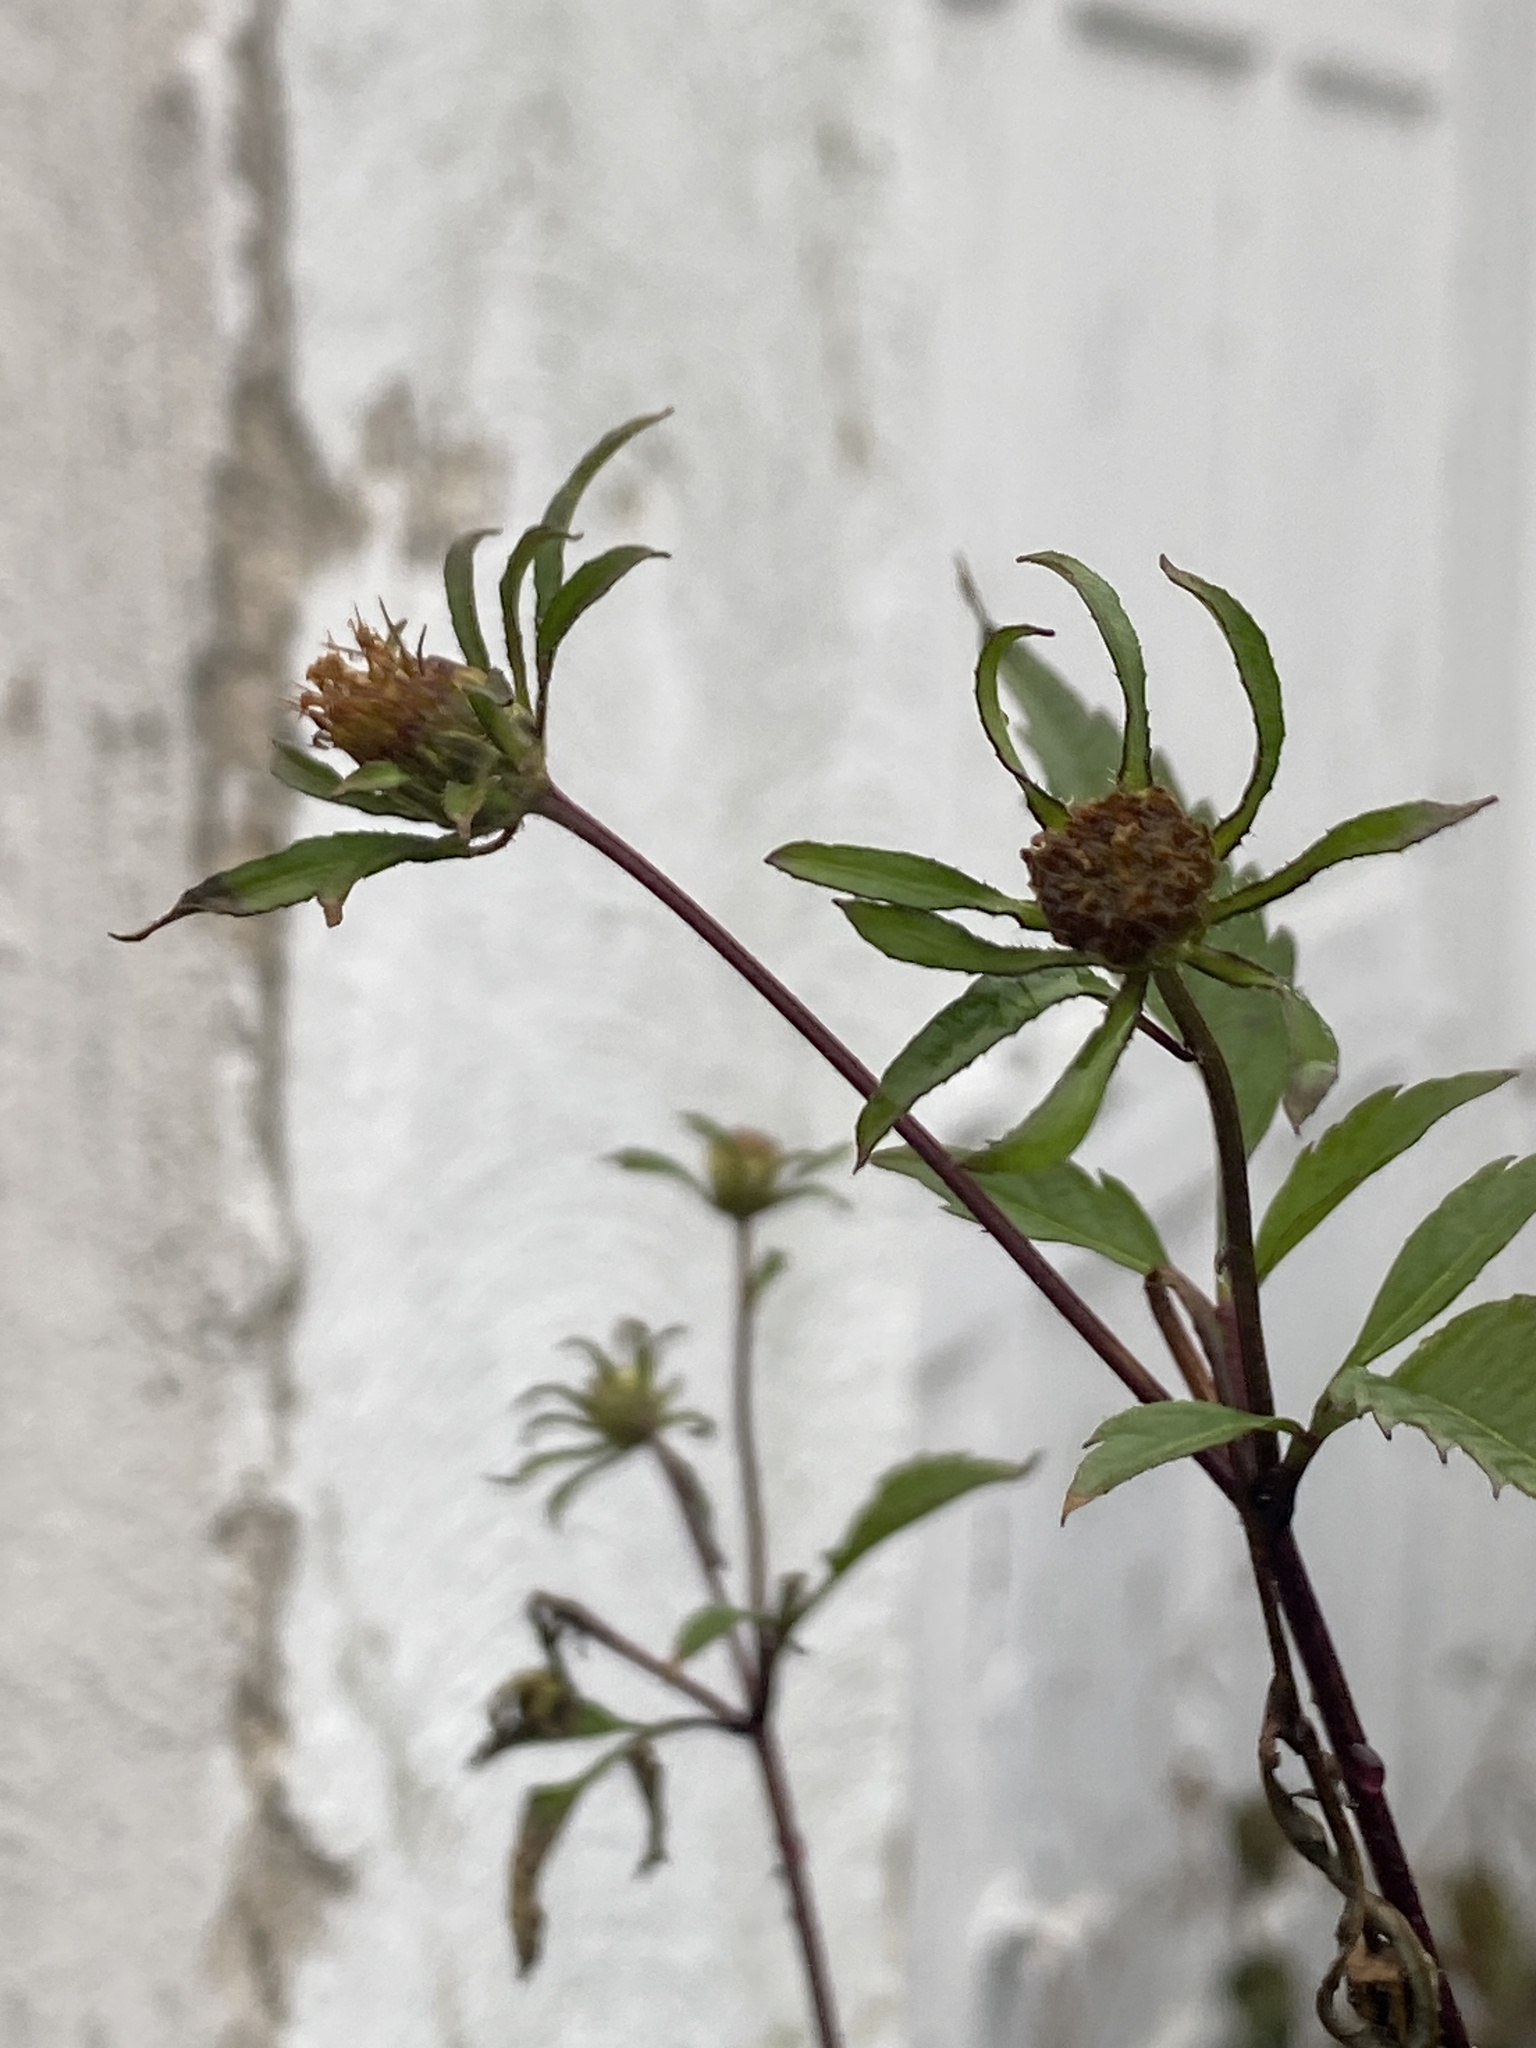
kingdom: Plantae
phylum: Tracheophyta
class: Magnoliopsida
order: Asterales
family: Asteraceae
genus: Bidens
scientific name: Bidens frondosa
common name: Beggarticks
